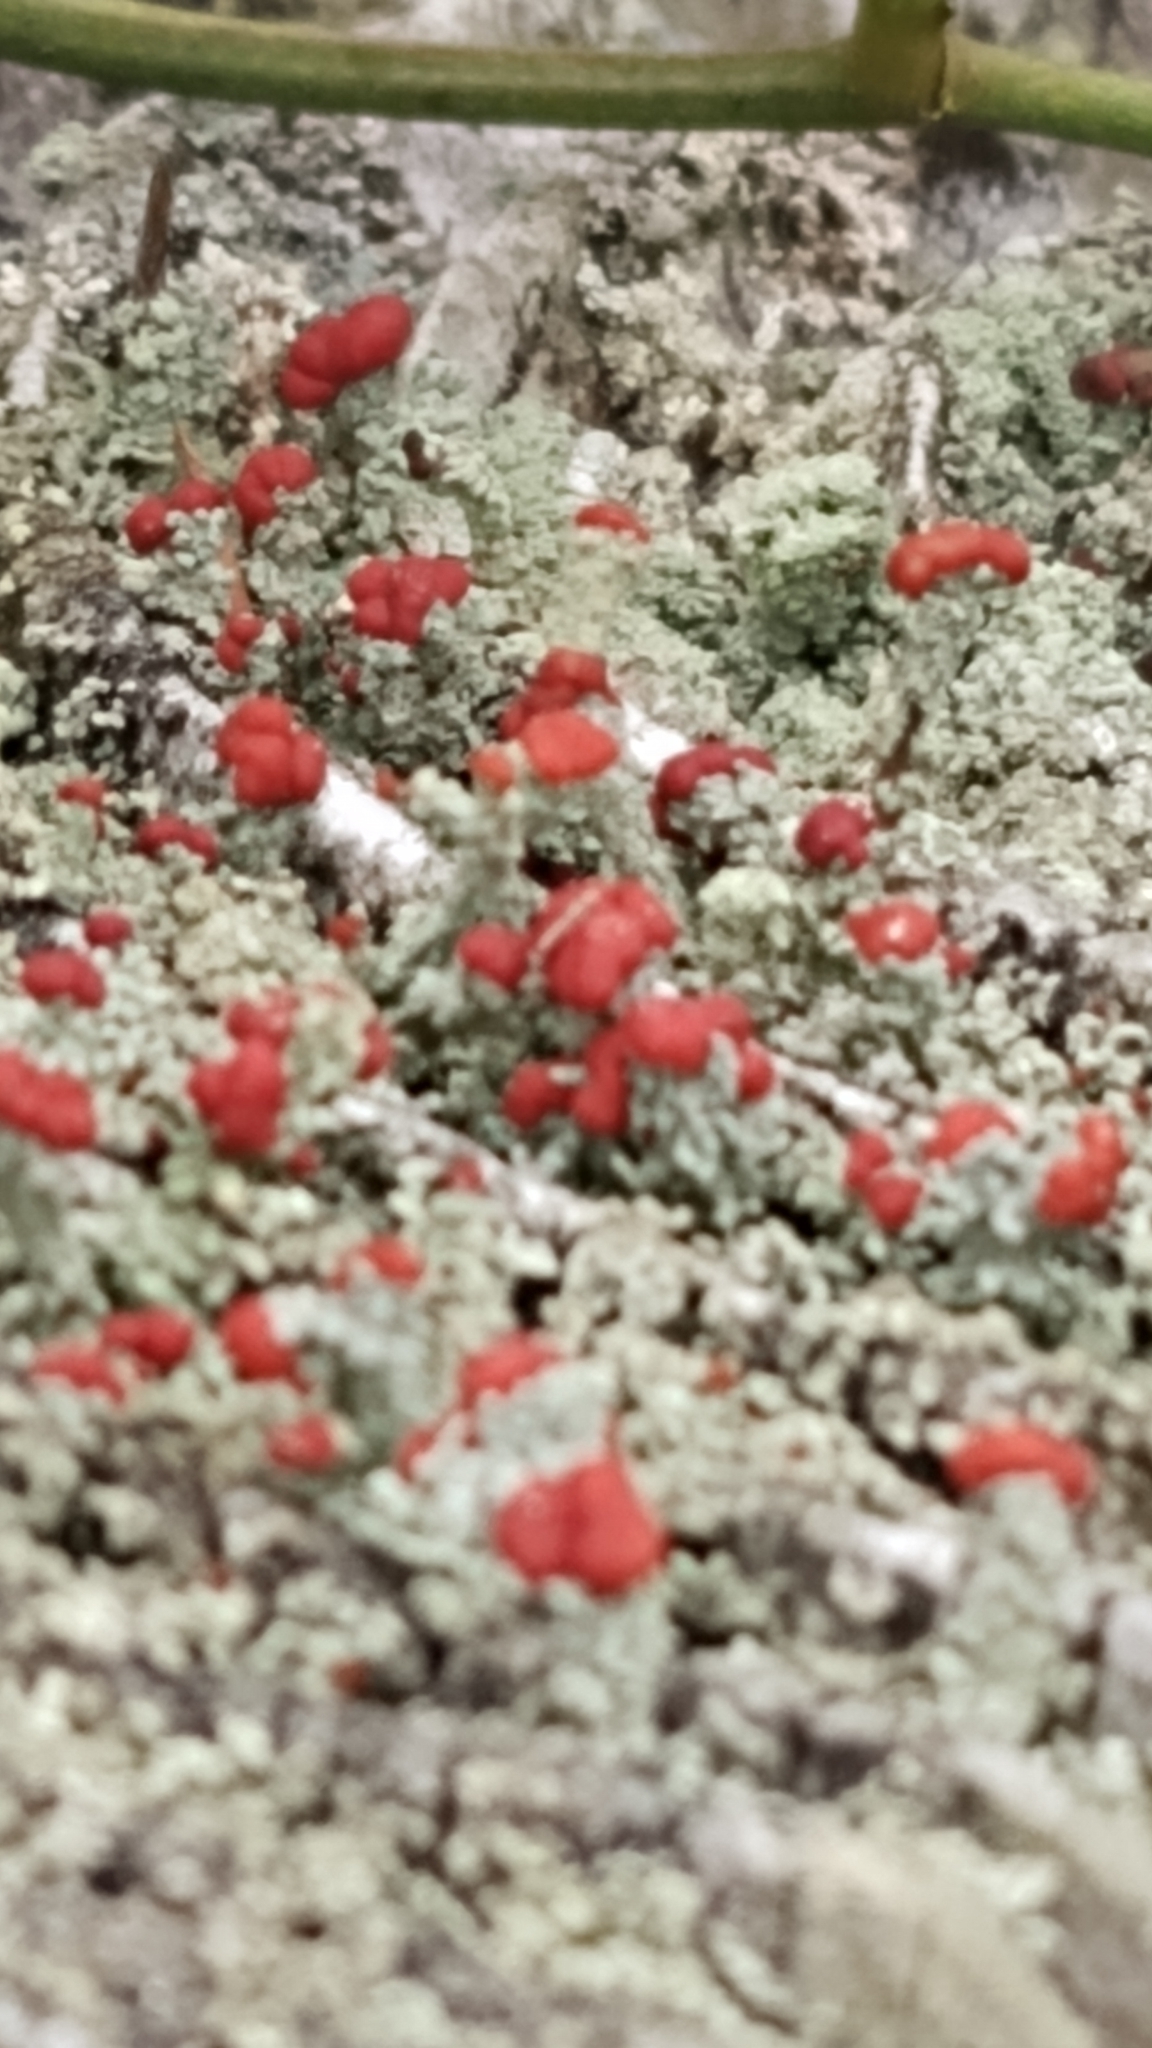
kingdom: Fungi
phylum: Ascomycota
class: Lecanoromycetes
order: Lecanorales
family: Cladoniaceae
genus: Cladonia
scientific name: Cladonia floerkeana
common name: Gritty british soldiers lichen
